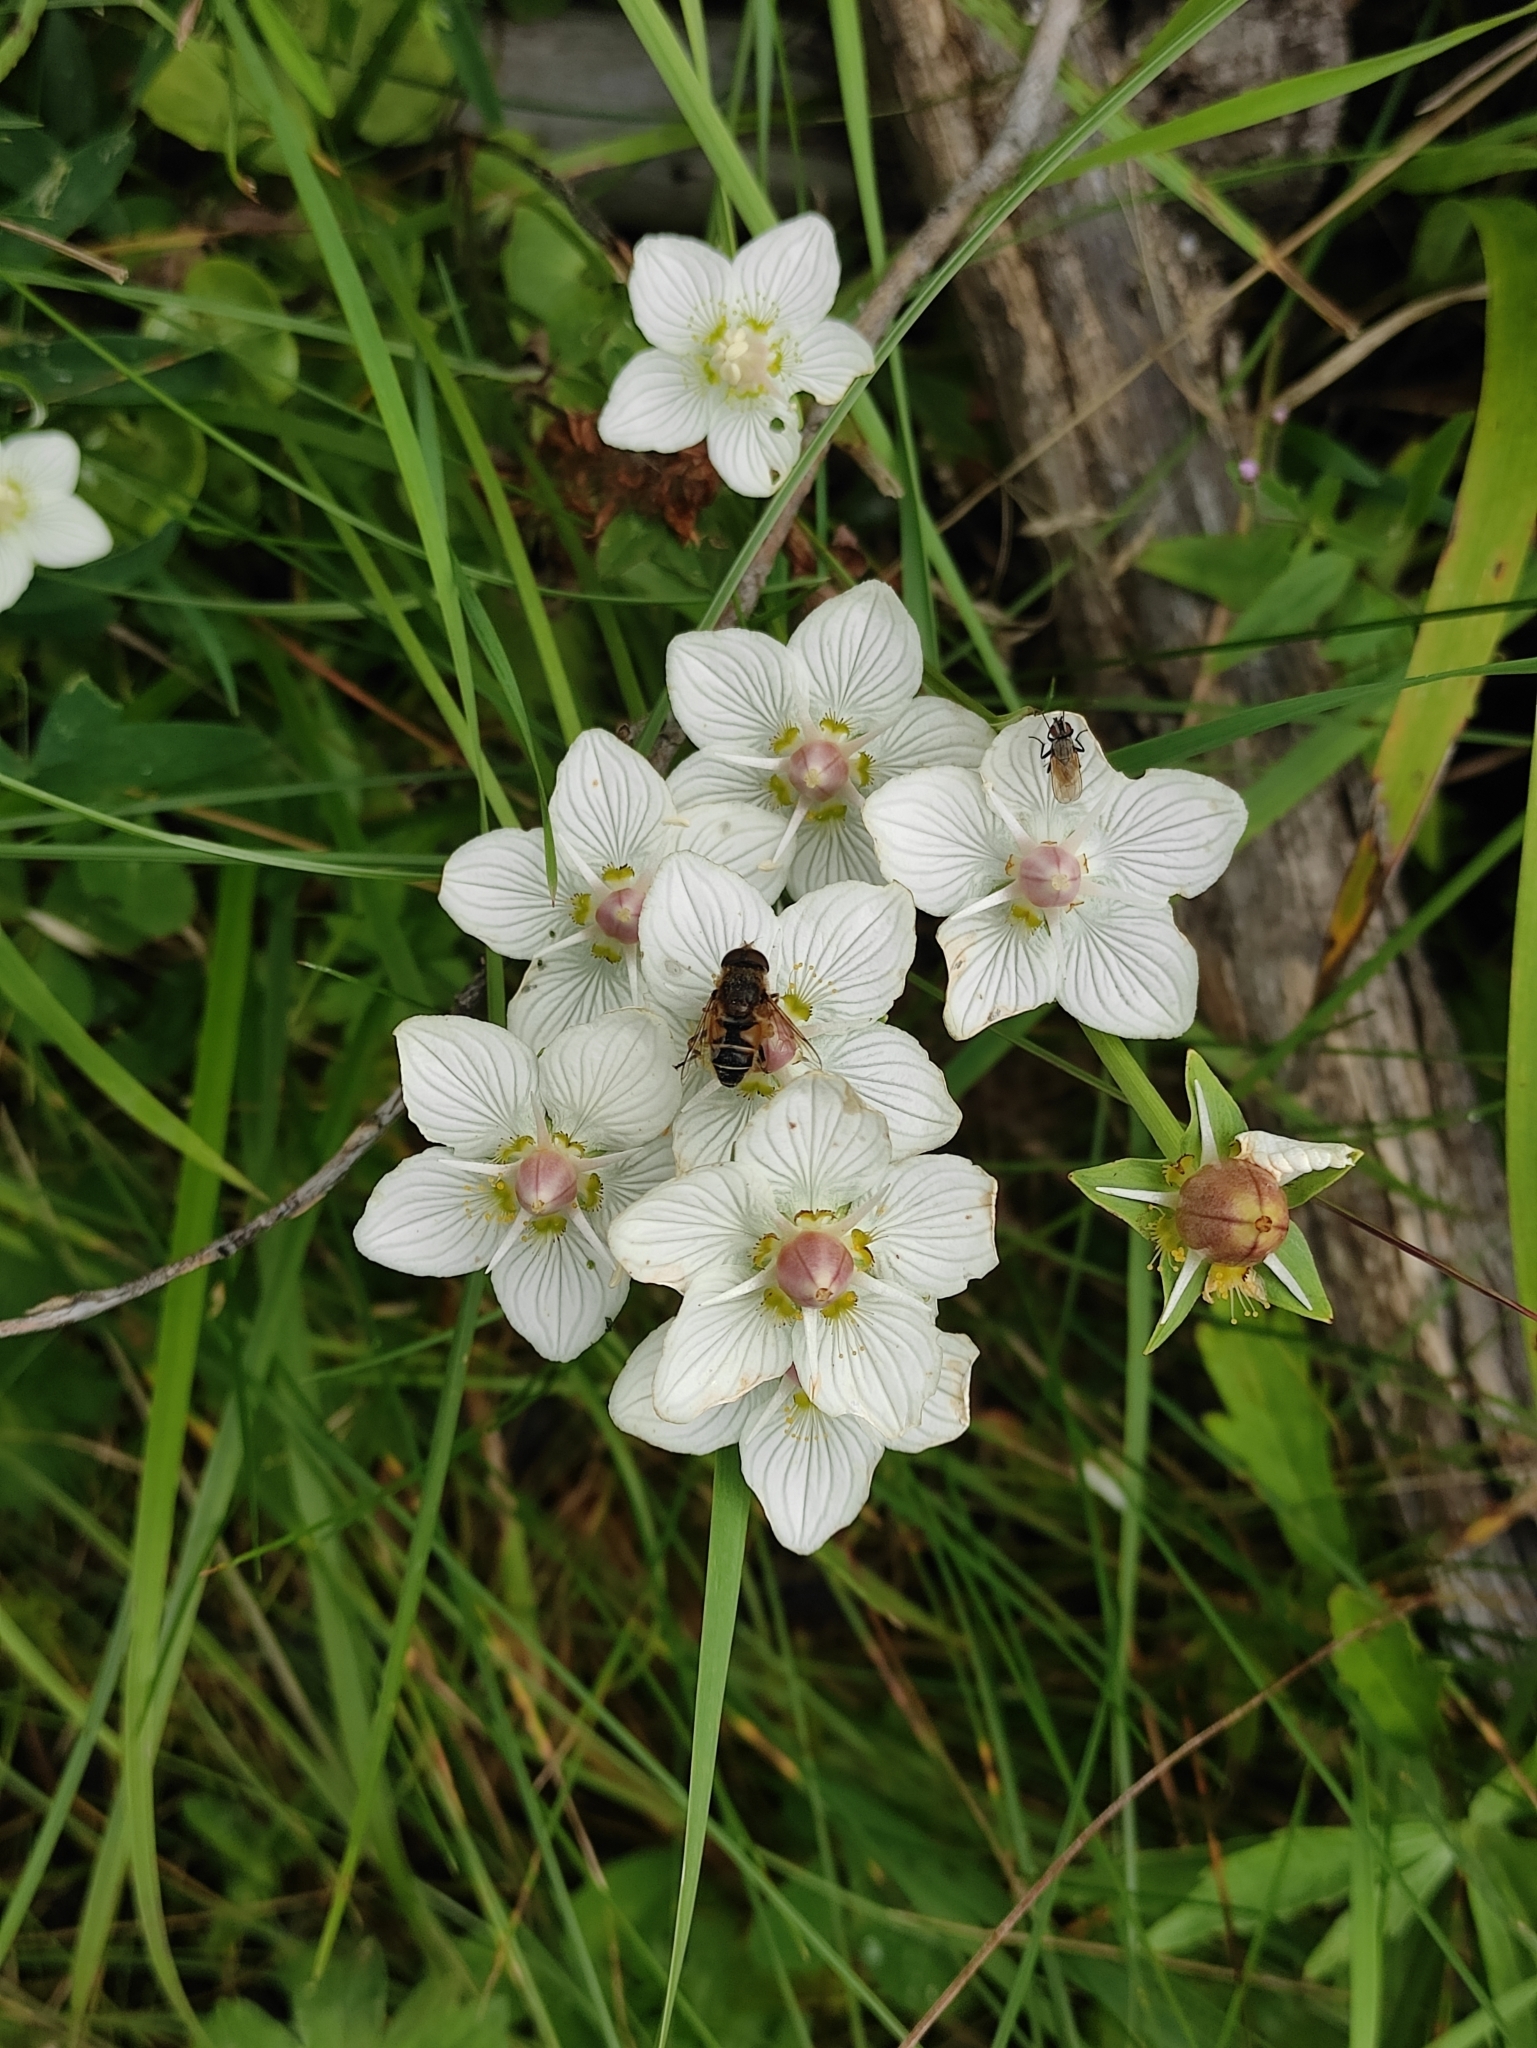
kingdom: Plantae
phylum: Tracheophyta
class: Magnoliopsida
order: Celastrales
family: Parnassiaceae
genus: Parnassia
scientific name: Parnassia palustris
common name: Grass-of-parnassus
